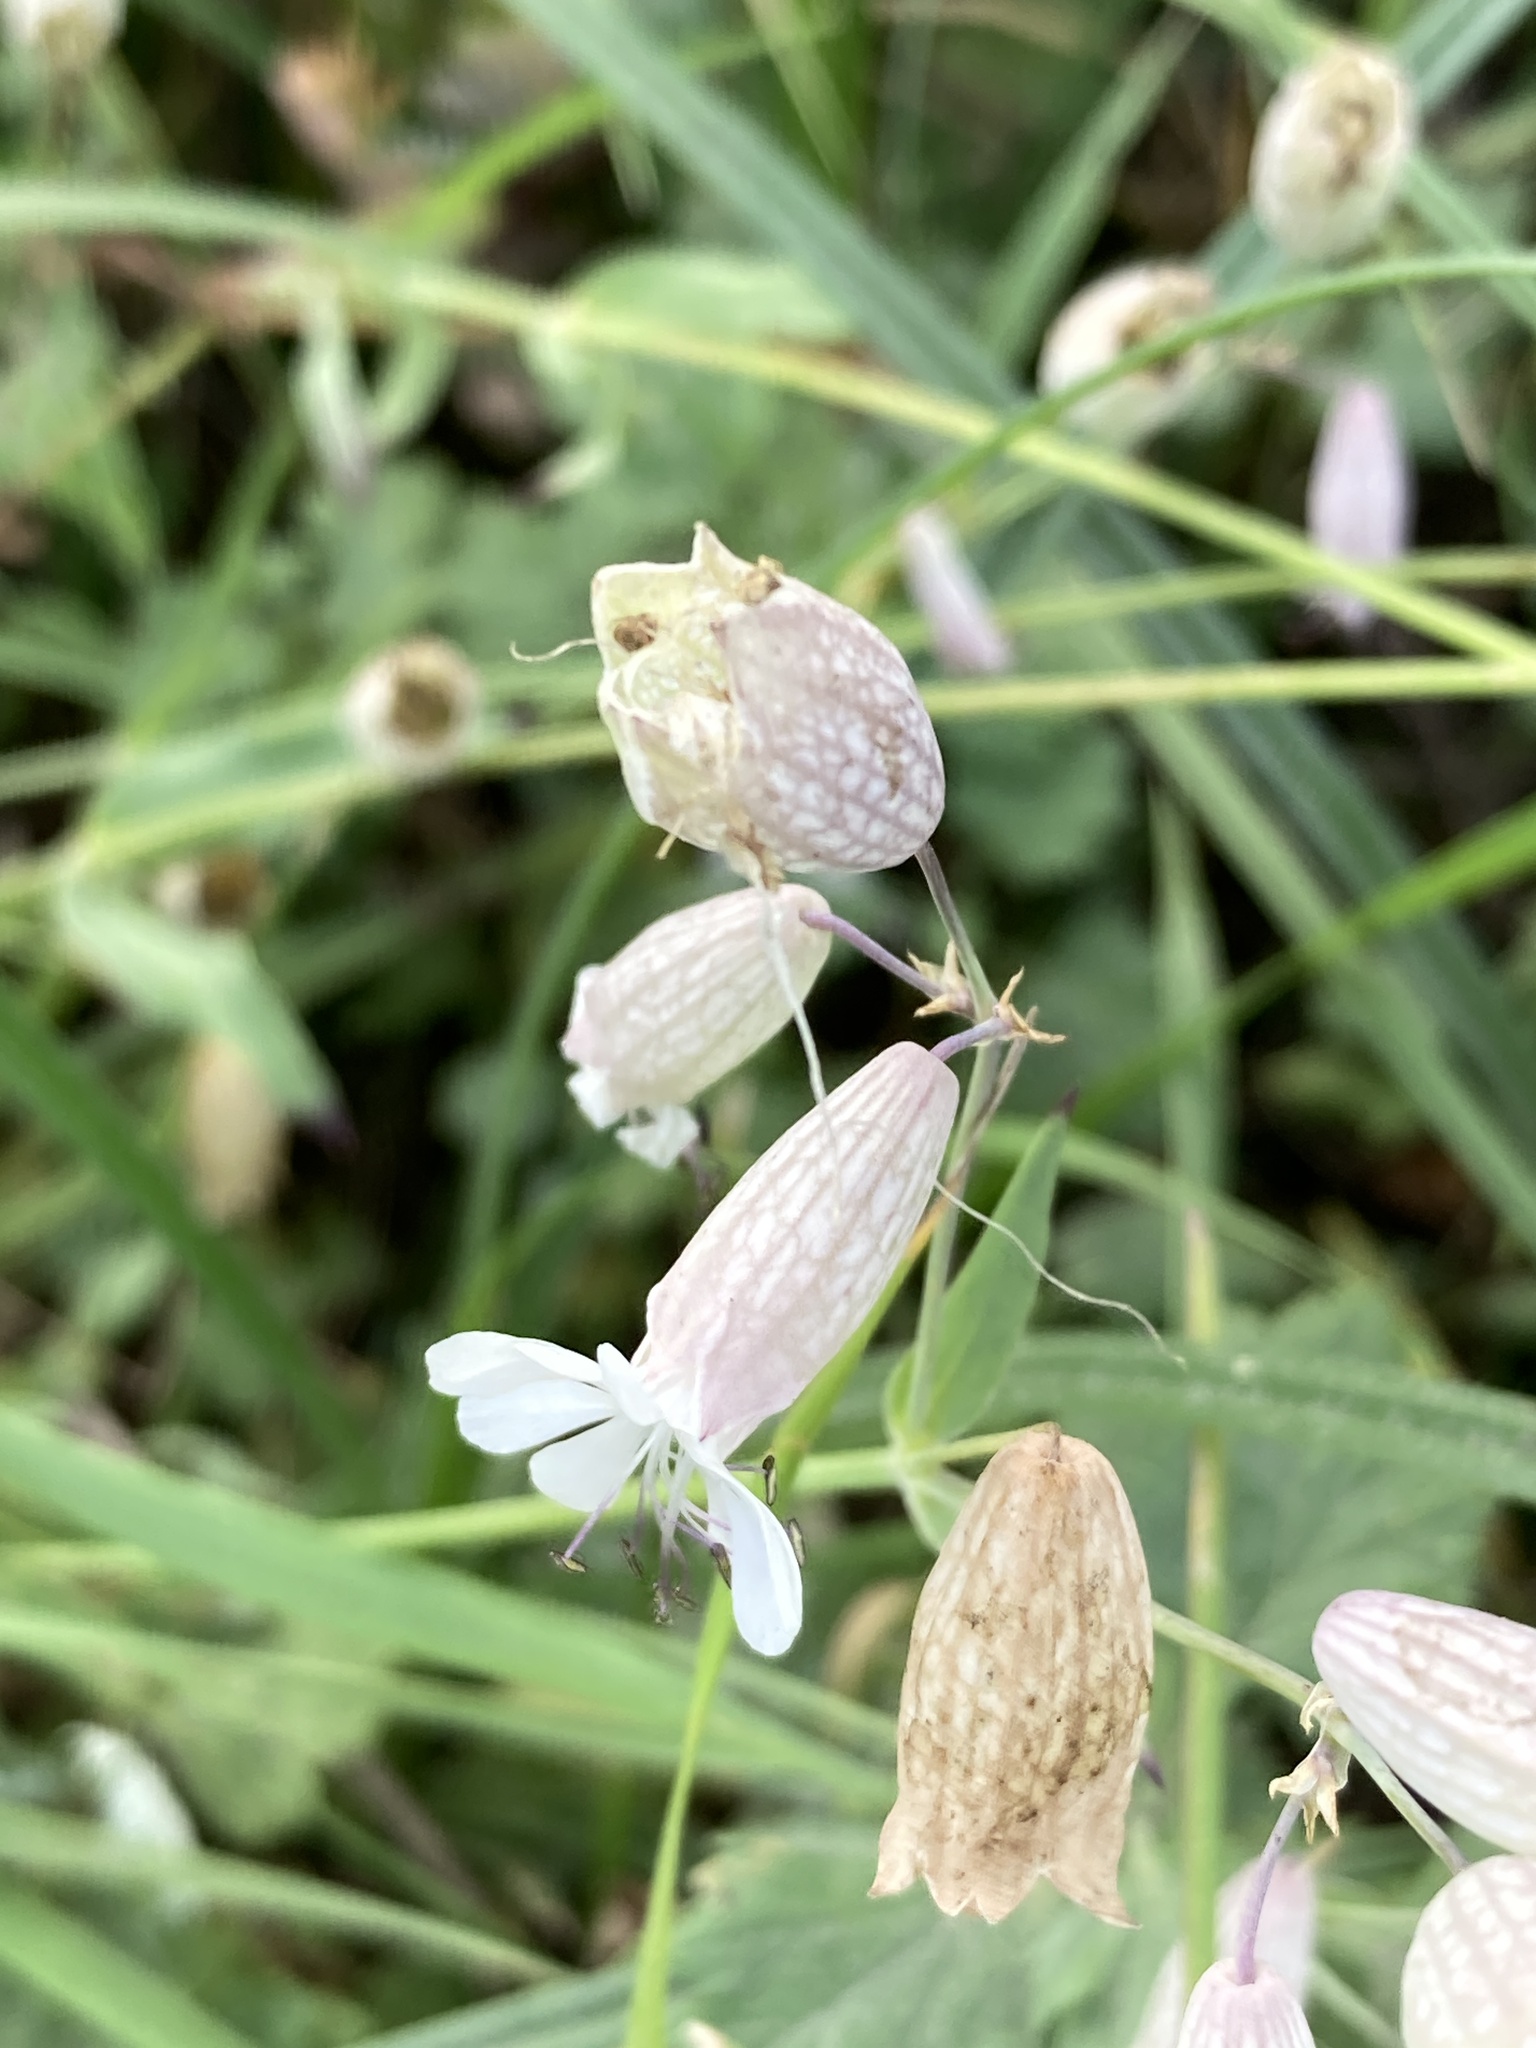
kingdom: Plantae
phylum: Tracheophyta
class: Magnoliopsida
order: Caryophyllales
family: Caryophyllaceae
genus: Silene
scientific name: Silene vulgaris
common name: Bladder campion
